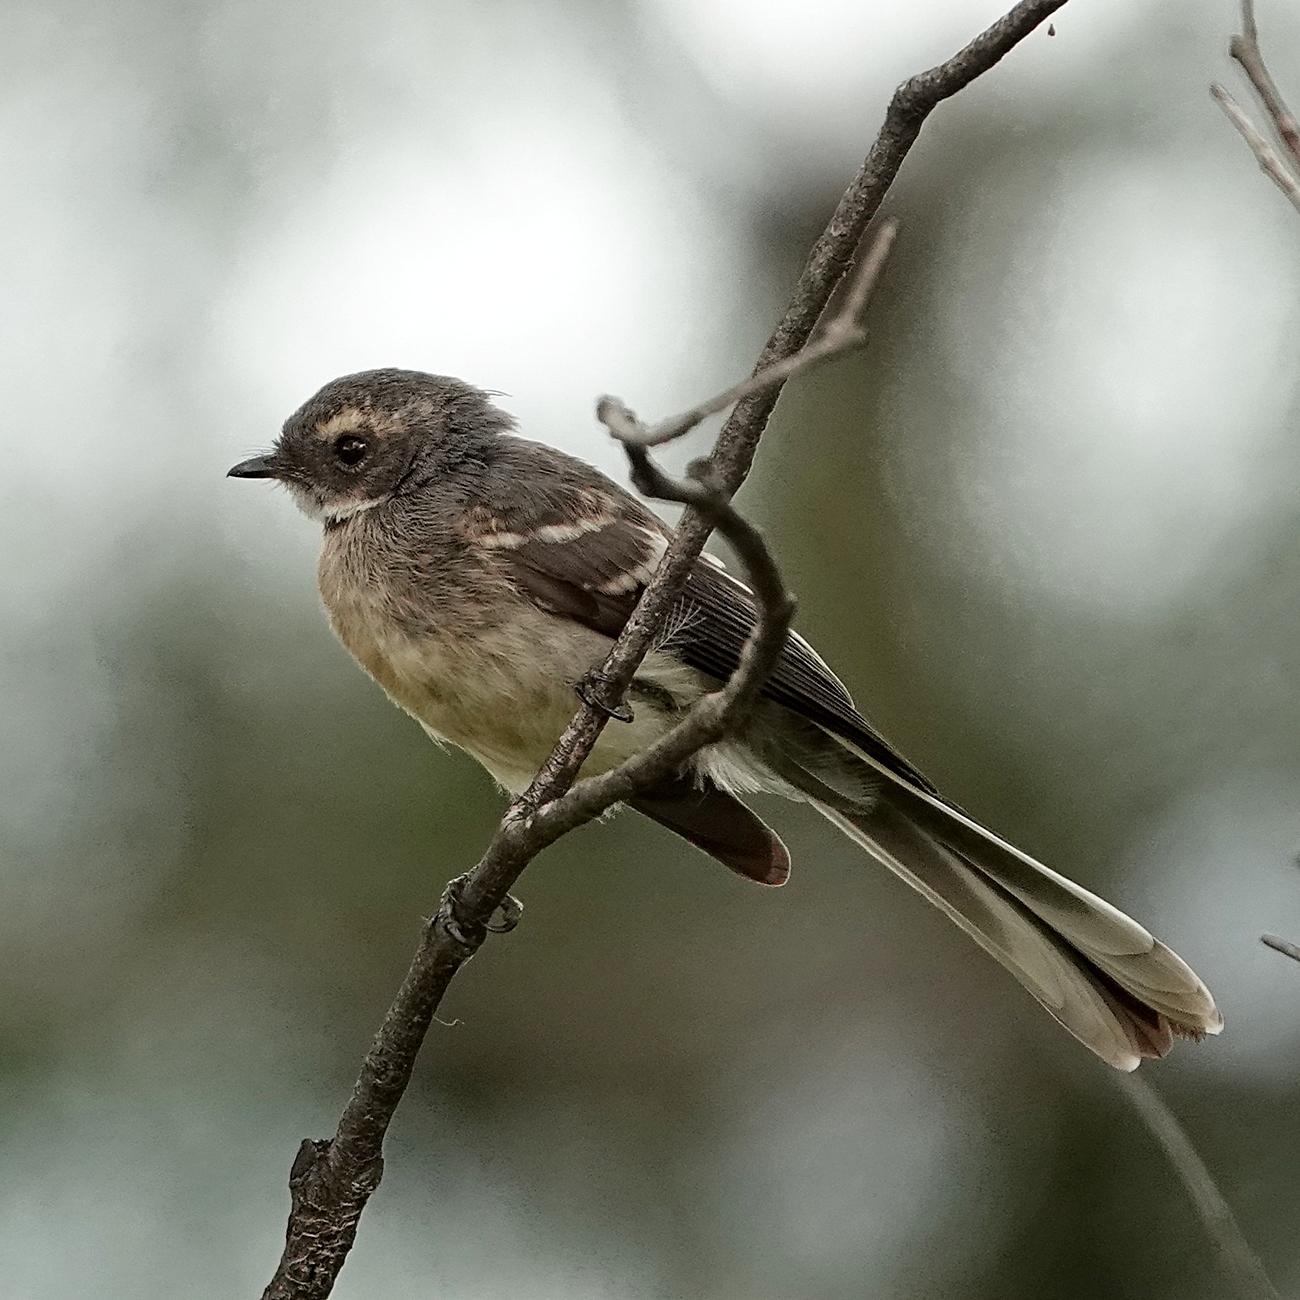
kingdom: Animalia
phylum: Chordata
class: Aves
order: Passeriformes
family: Rhipiduridae
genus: Rhipidura
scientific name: Rhipidura albiscapa
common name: Grey fantail
